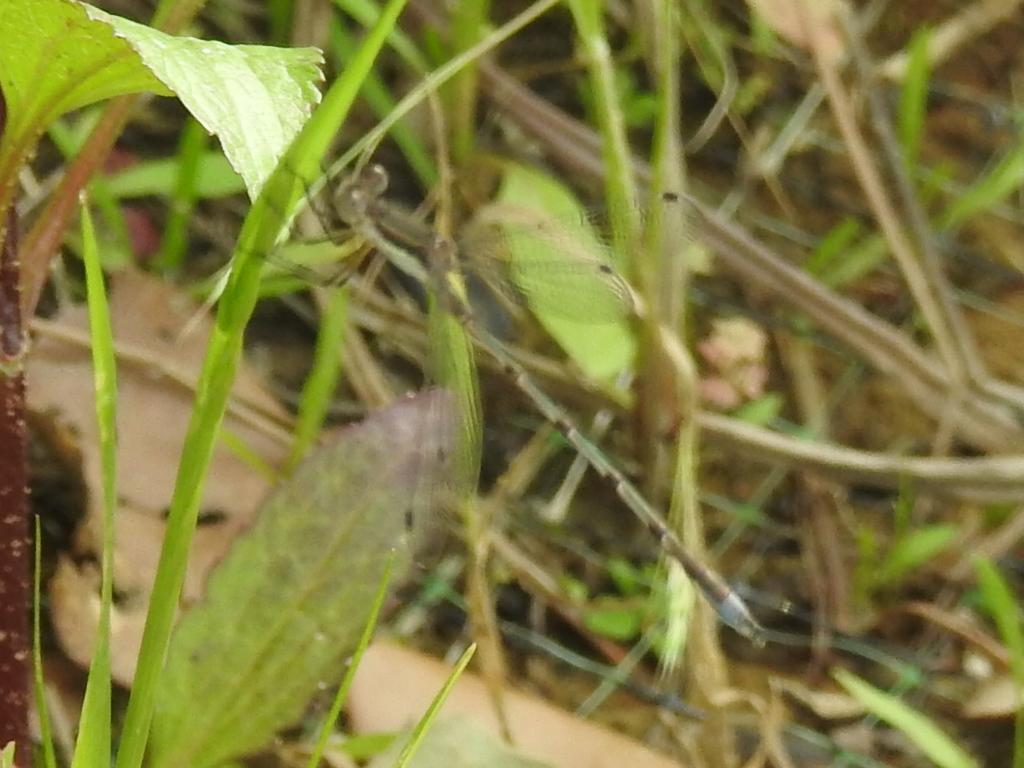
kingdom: Animalia
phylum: Arthropoda
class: Insecta
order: Odonata
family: Lestidae
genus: Lestes
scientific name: Lestes australis
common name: Southern spreadwing
